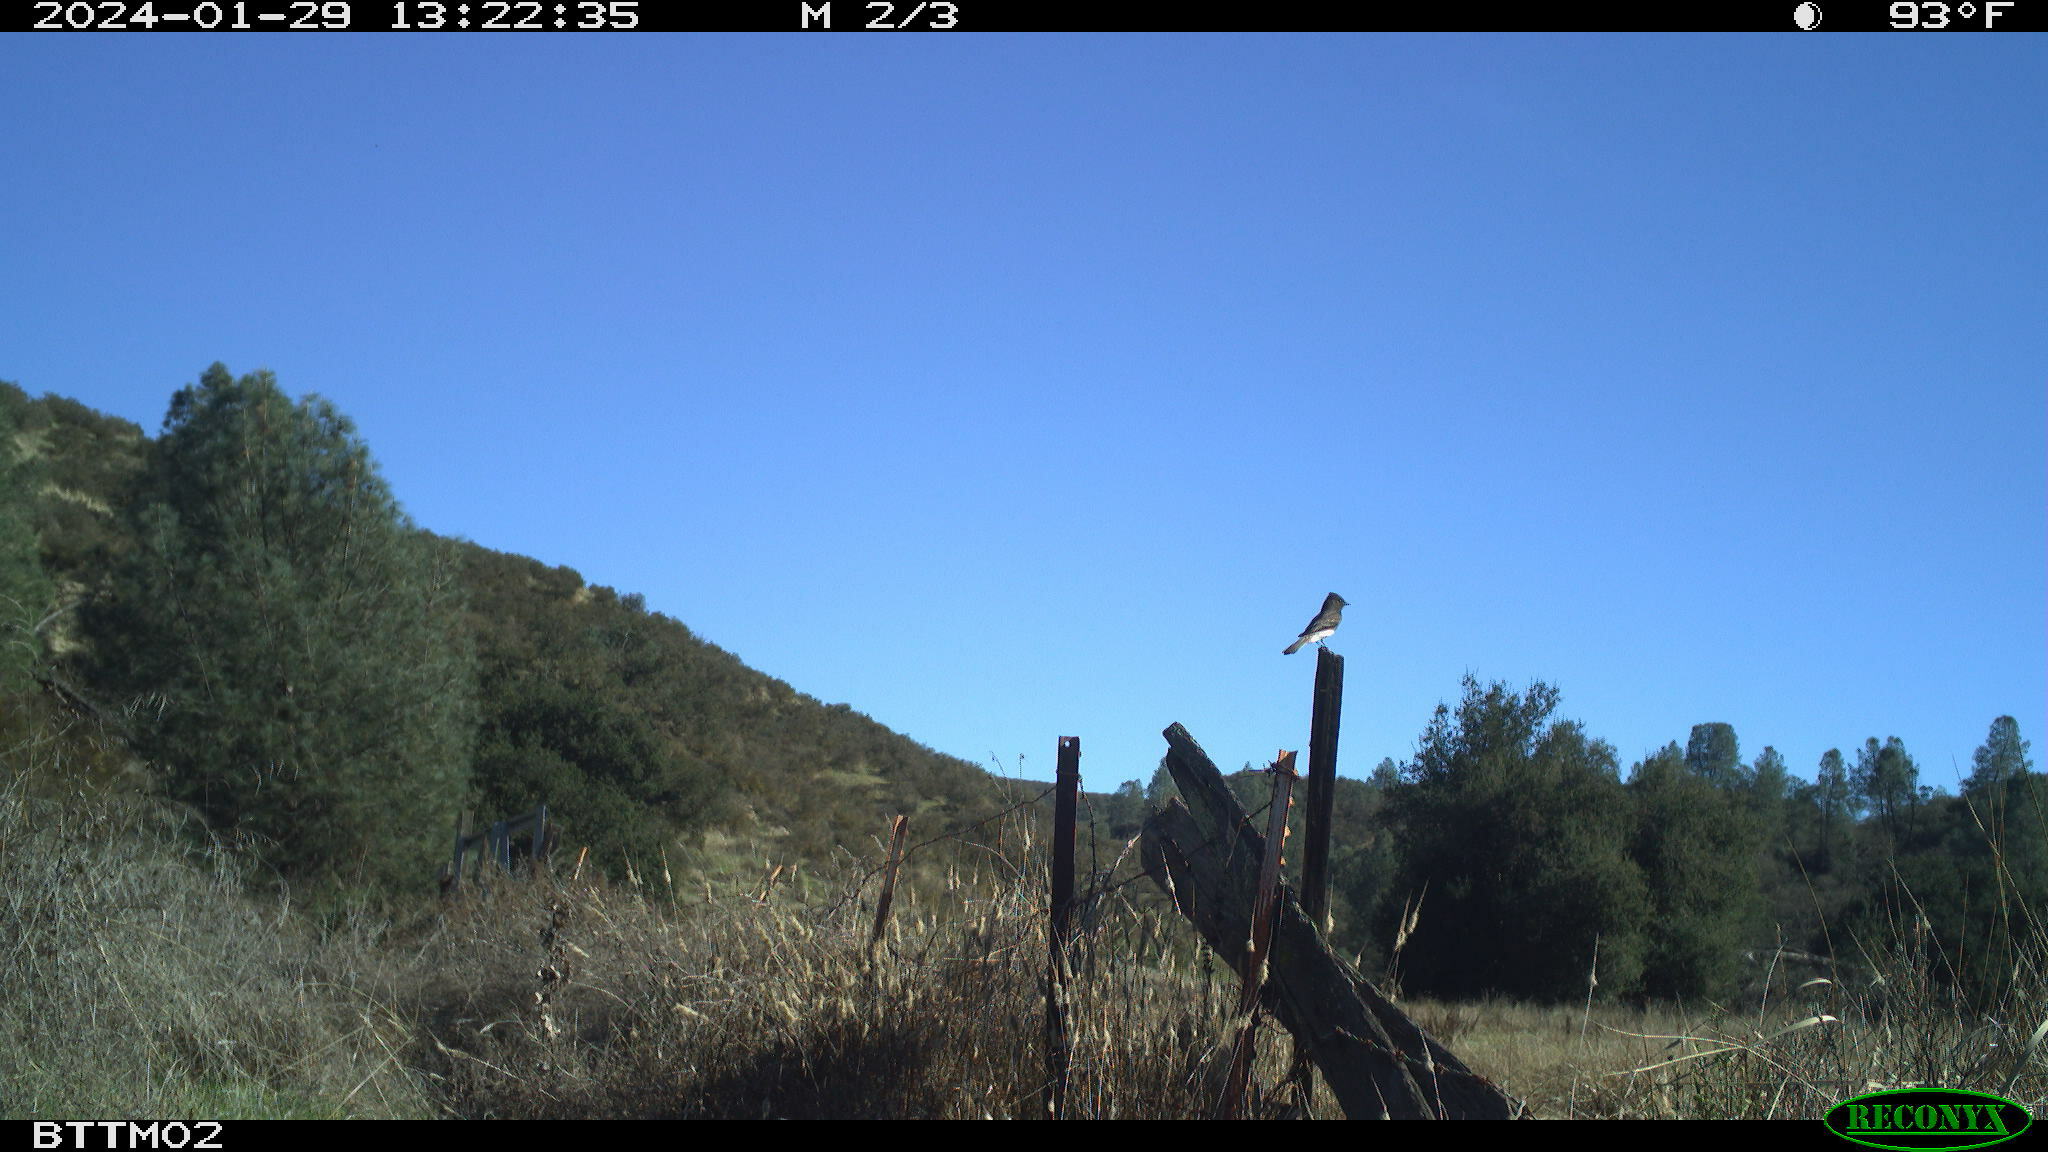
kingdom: Animalia
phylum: Chordata
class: Aves
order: Passeriformes
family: Tyrannidae
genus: Sayornis
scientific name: Sayornis nigricans
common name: Black phoebe
